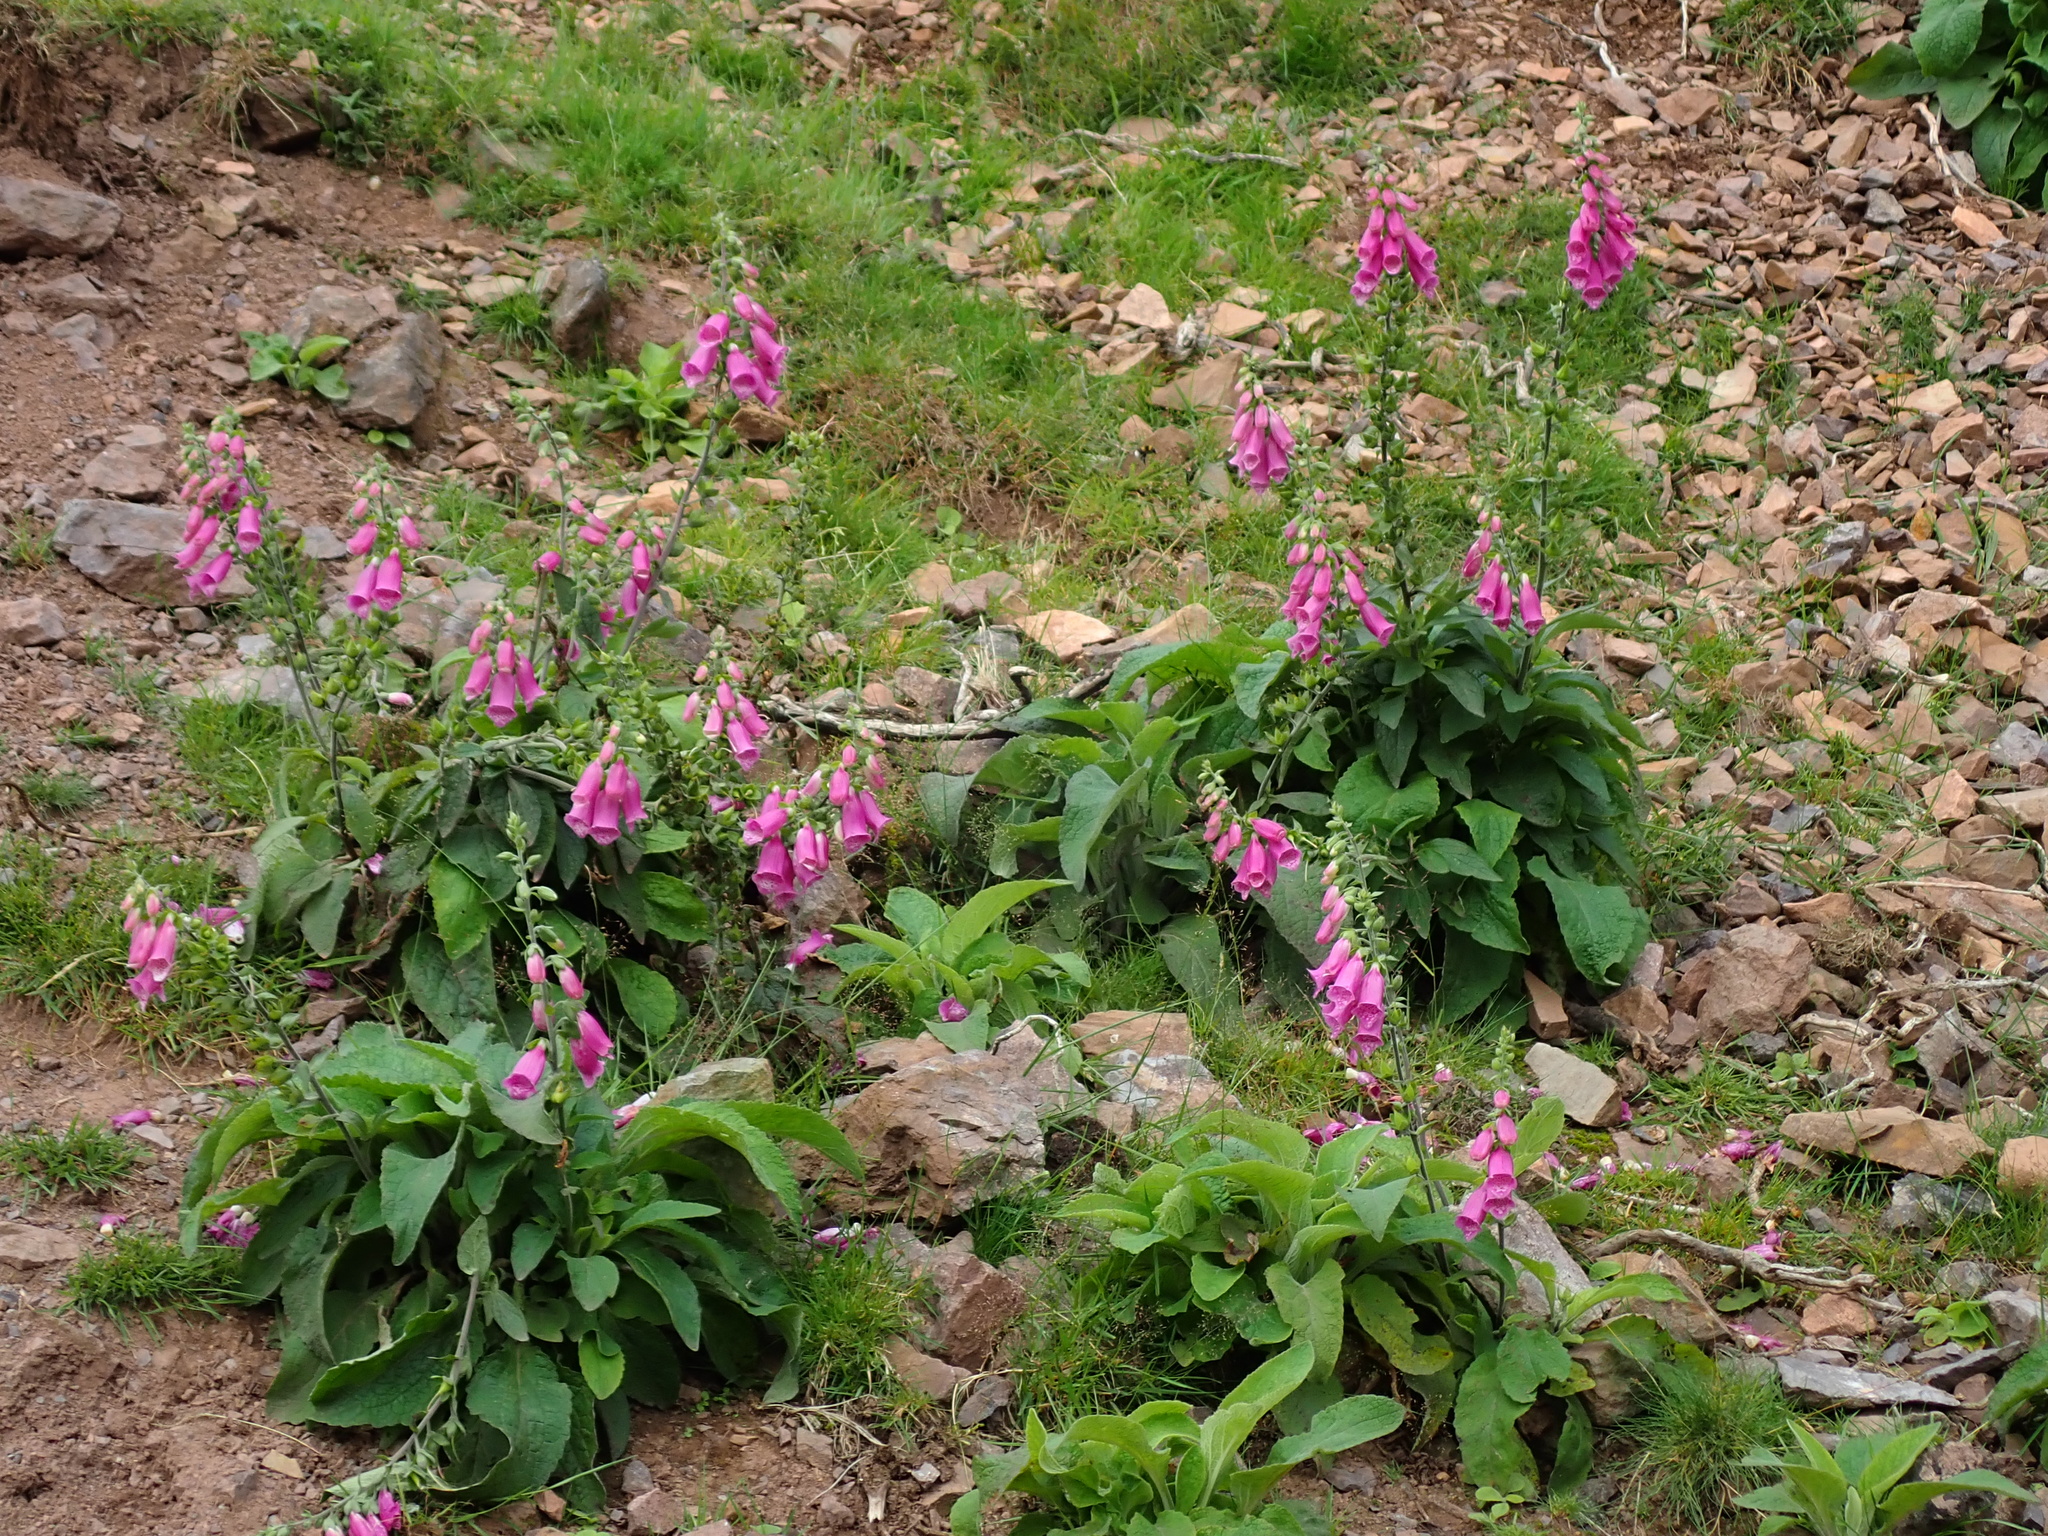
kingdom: Plantae
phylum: Tracheophyta
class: Magnoliopsida
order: Lamiales
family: Plantaginaceae
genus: Digitalis
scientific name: Digitalis purpurea
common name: Foxglove
